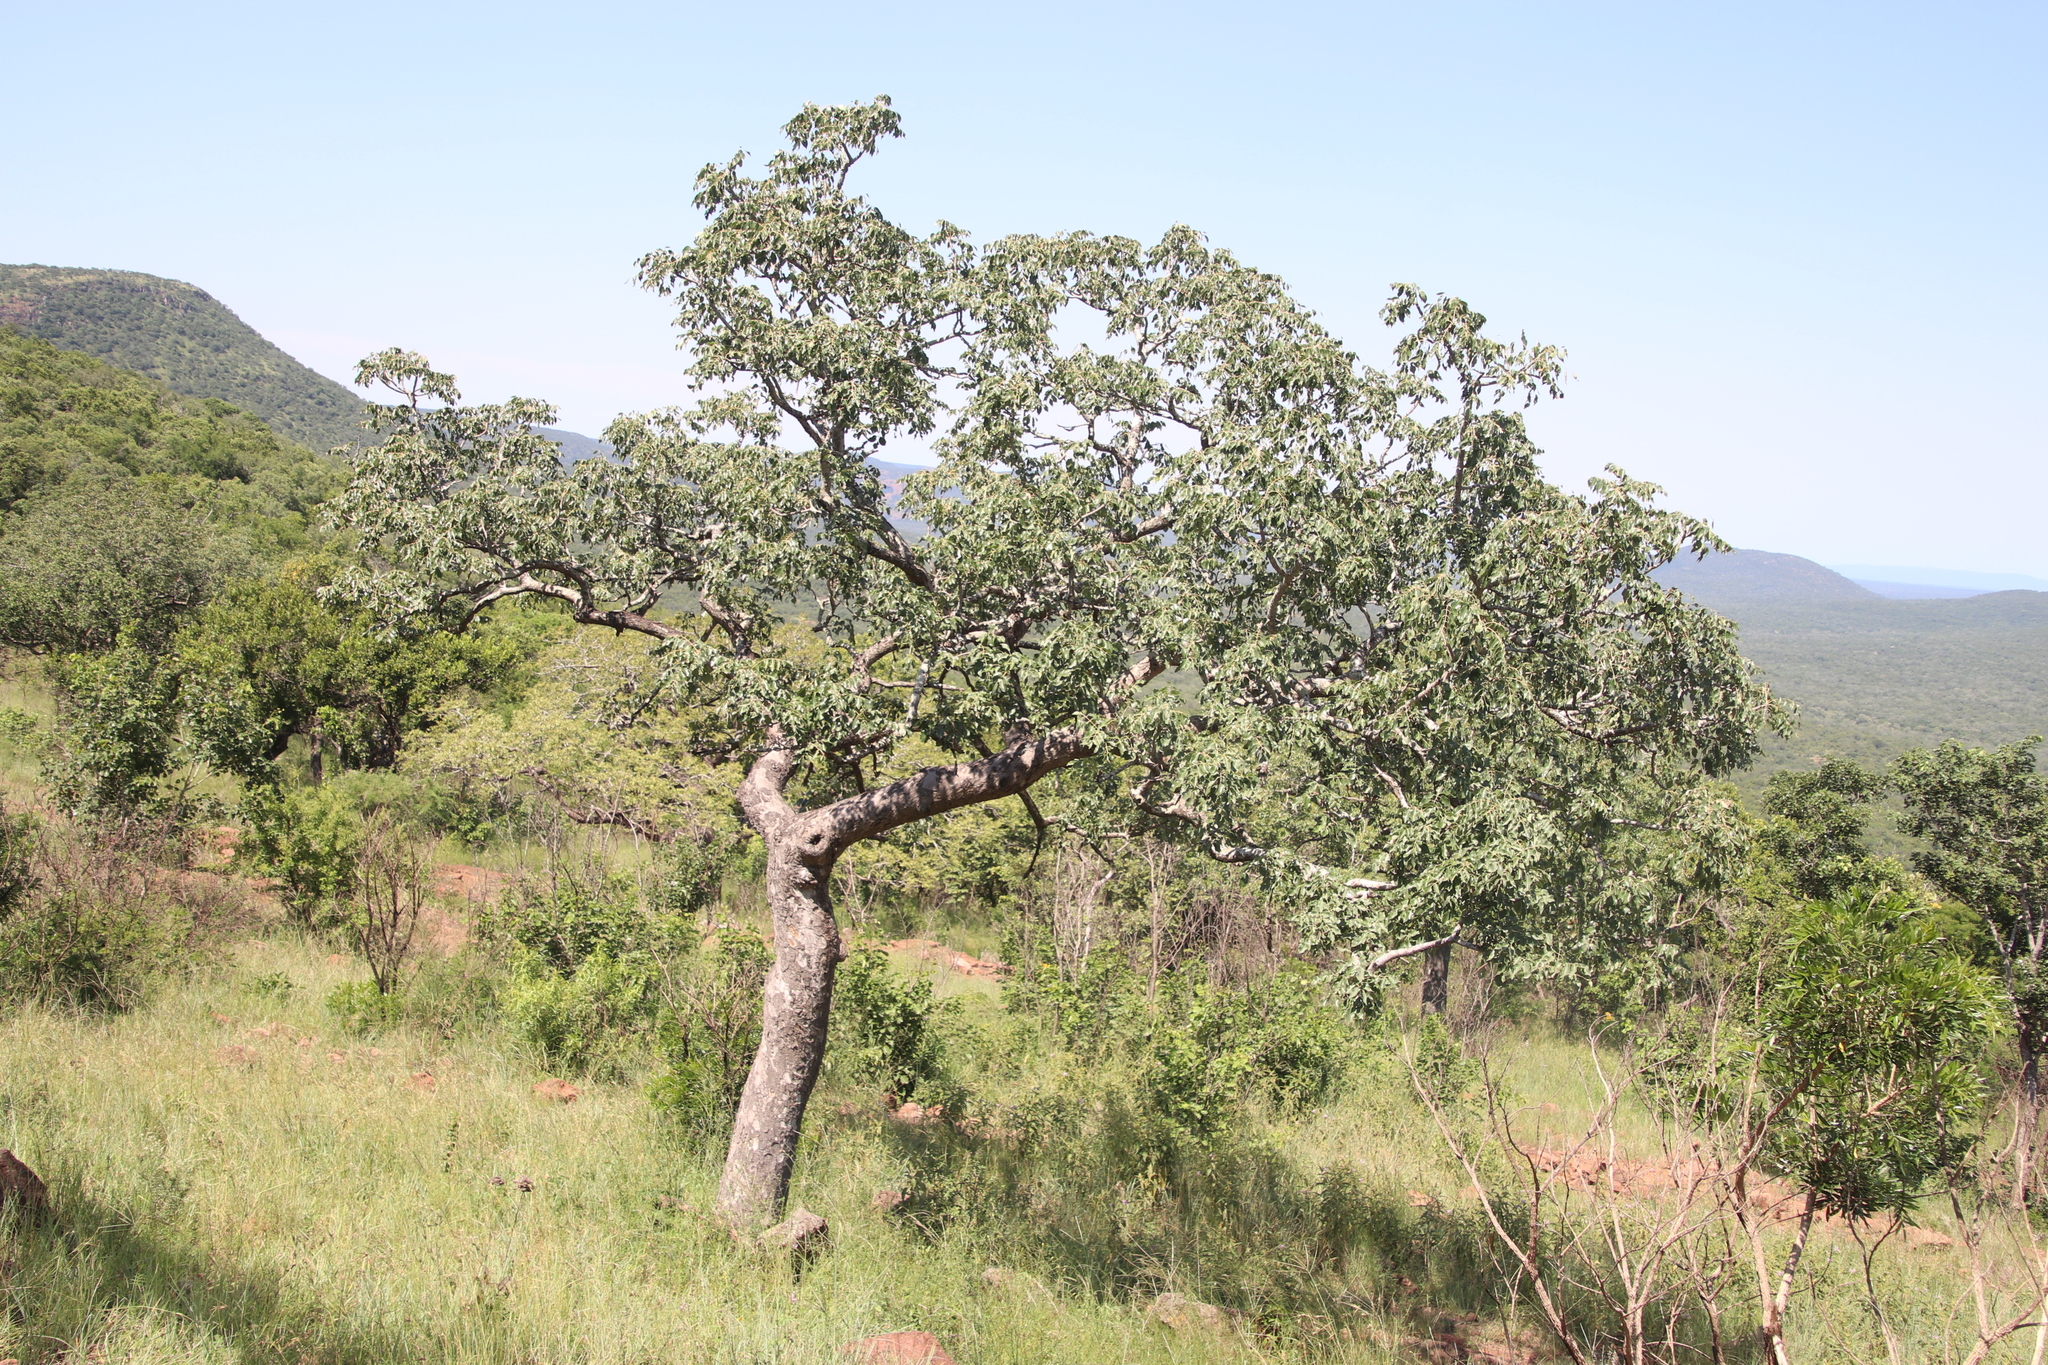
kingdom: Plantae
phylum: Tracheophyta
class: Magnoliopsida
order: Sapindales
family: Anacardiaceae
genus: Sclerocarya
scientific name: Sclerocarya birrea
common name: Marula
